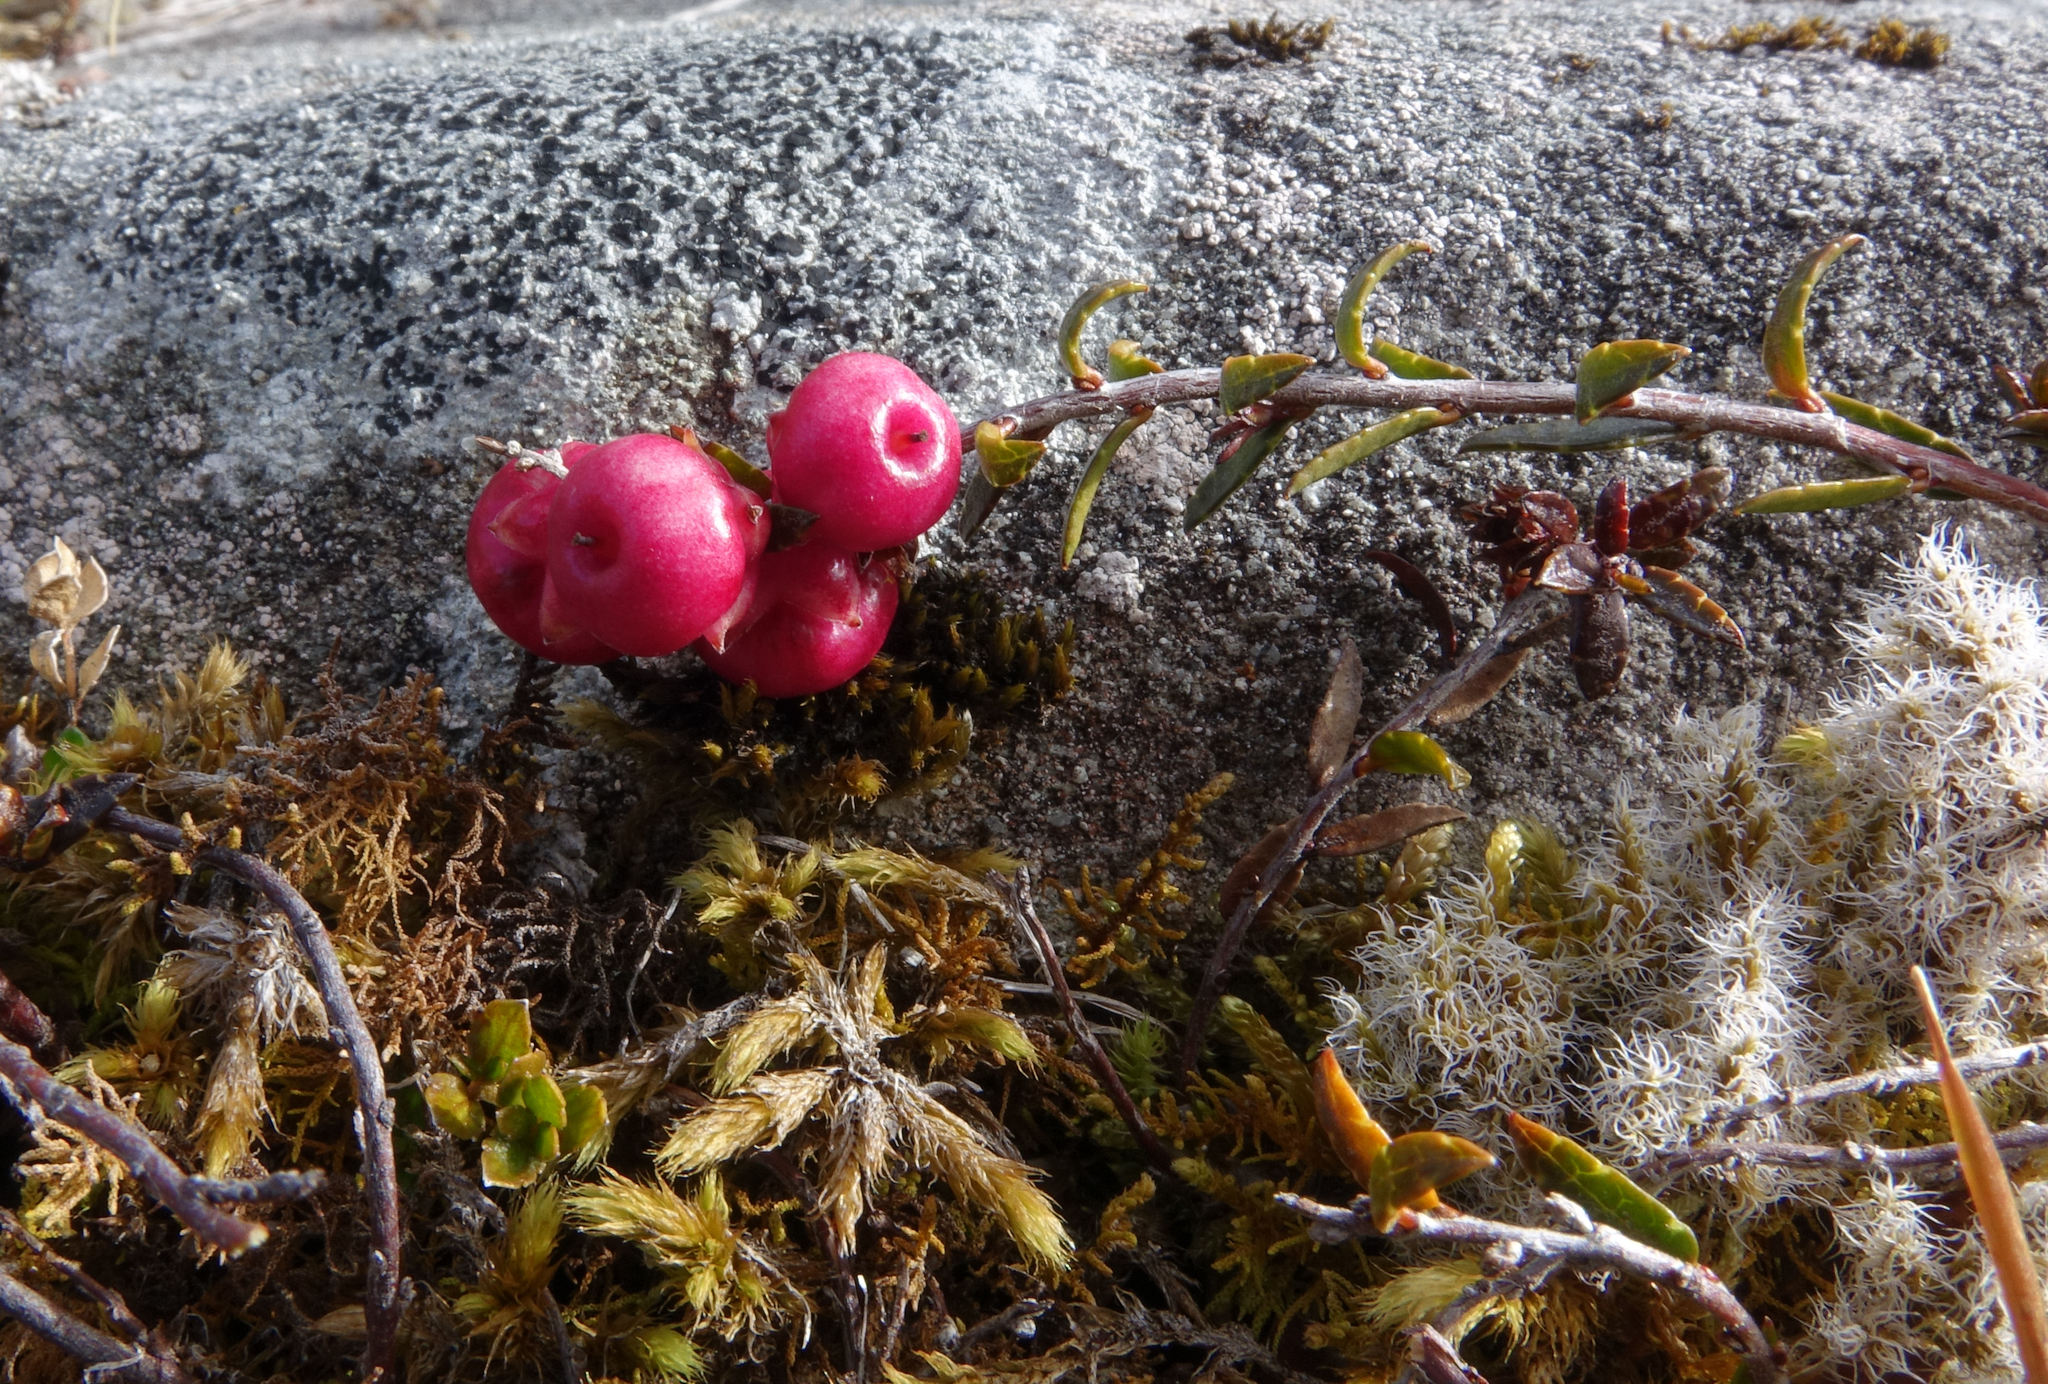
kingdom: Plantae
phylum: Tracheophyta
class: Magnoliopsida
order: Ericales
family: Ericaceae
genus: Gaultheria
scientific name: Gaultheria macrostigma
